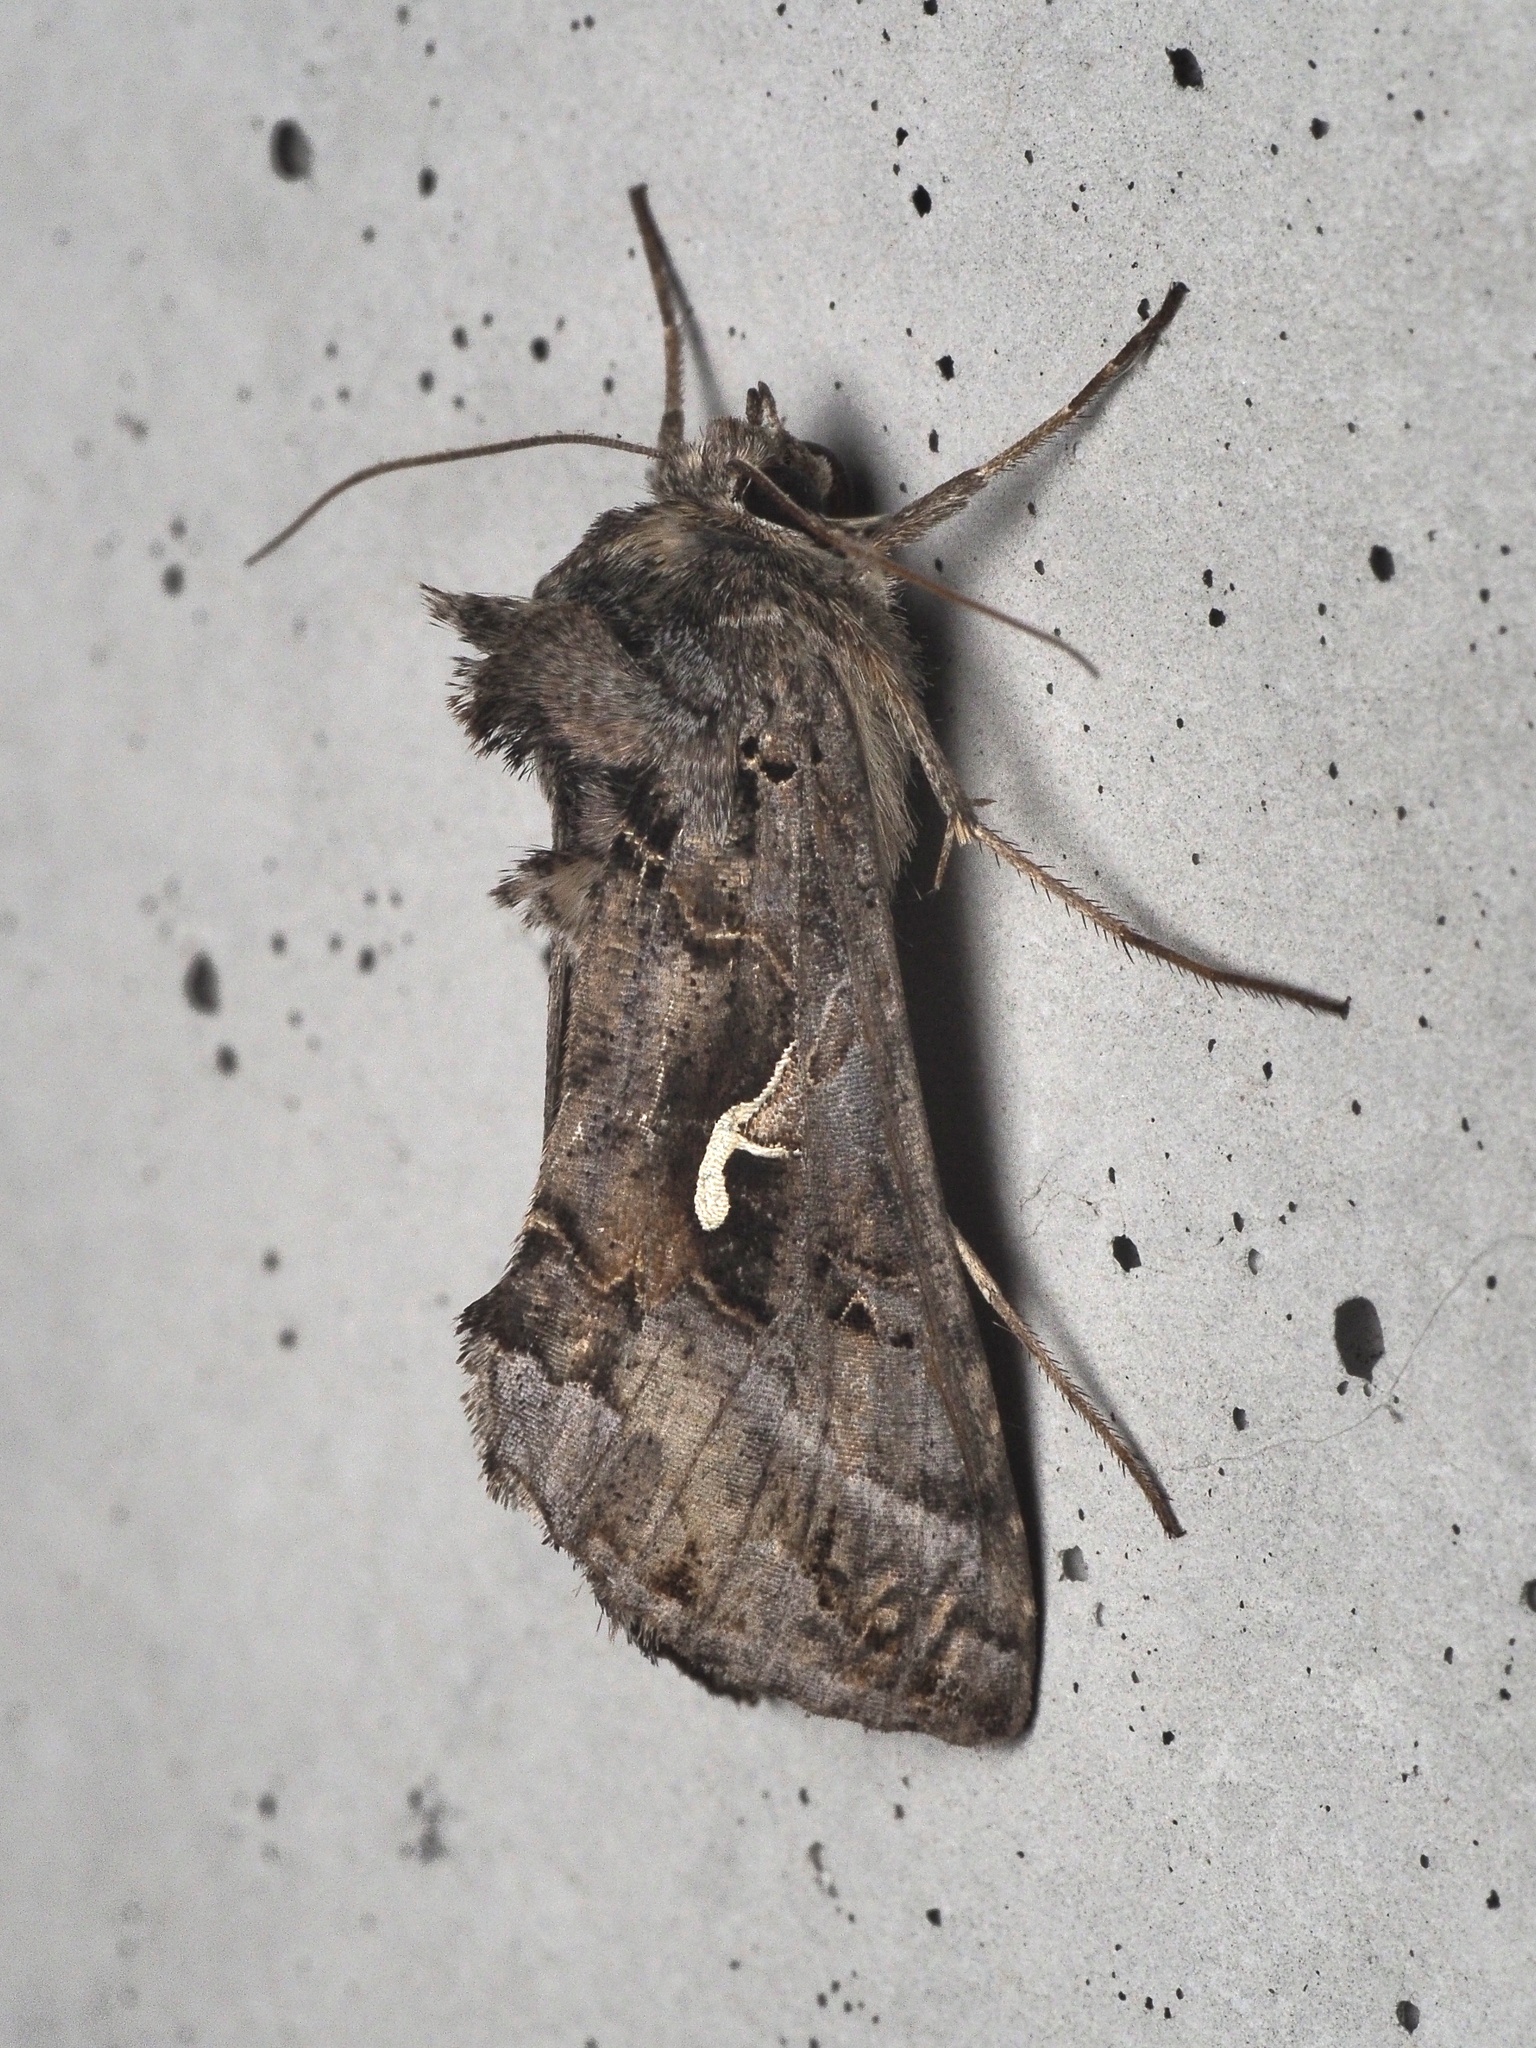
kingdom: Animalia
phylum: Arthropoda
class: Insecta
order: Lepidoptera
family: Noctuidae
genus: Autographa
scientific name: Autographa gamma
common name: Silver y
